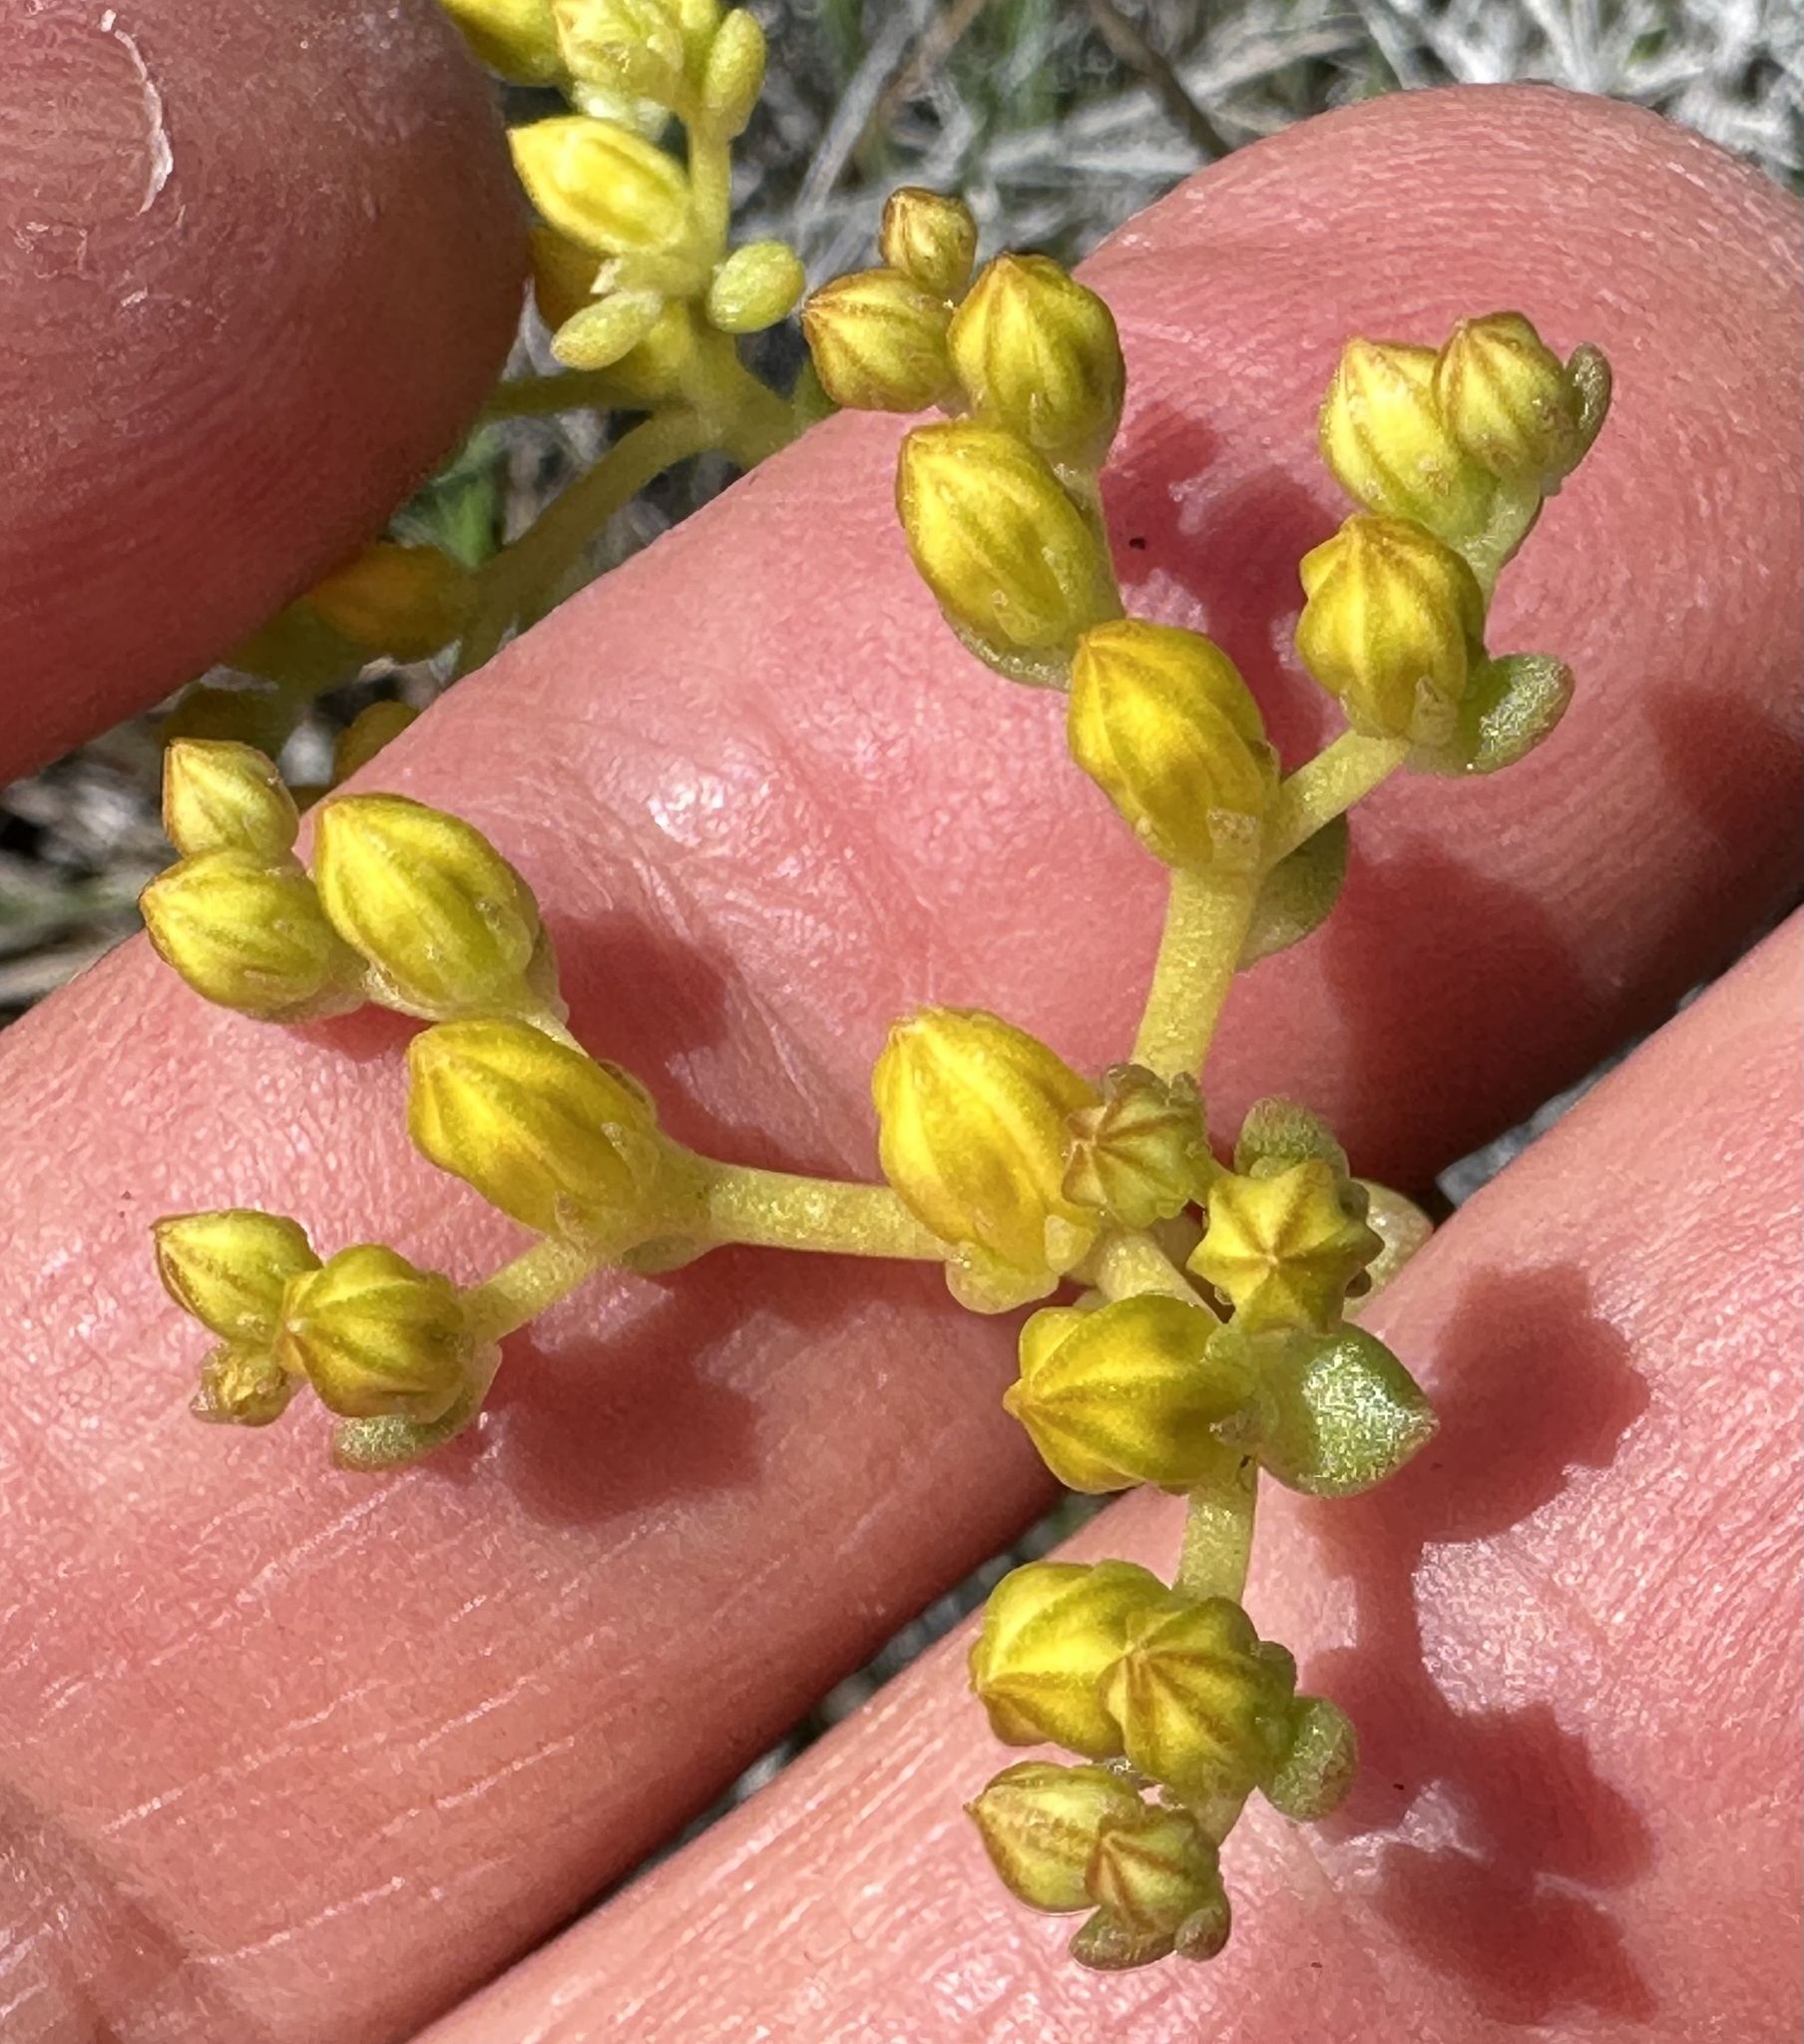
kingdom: Plantae
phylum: Tracheophyta
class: Magnoliopsida
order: Saxifragales
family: Crassulaceae
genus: Sedum
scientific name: Sedum leibergii
